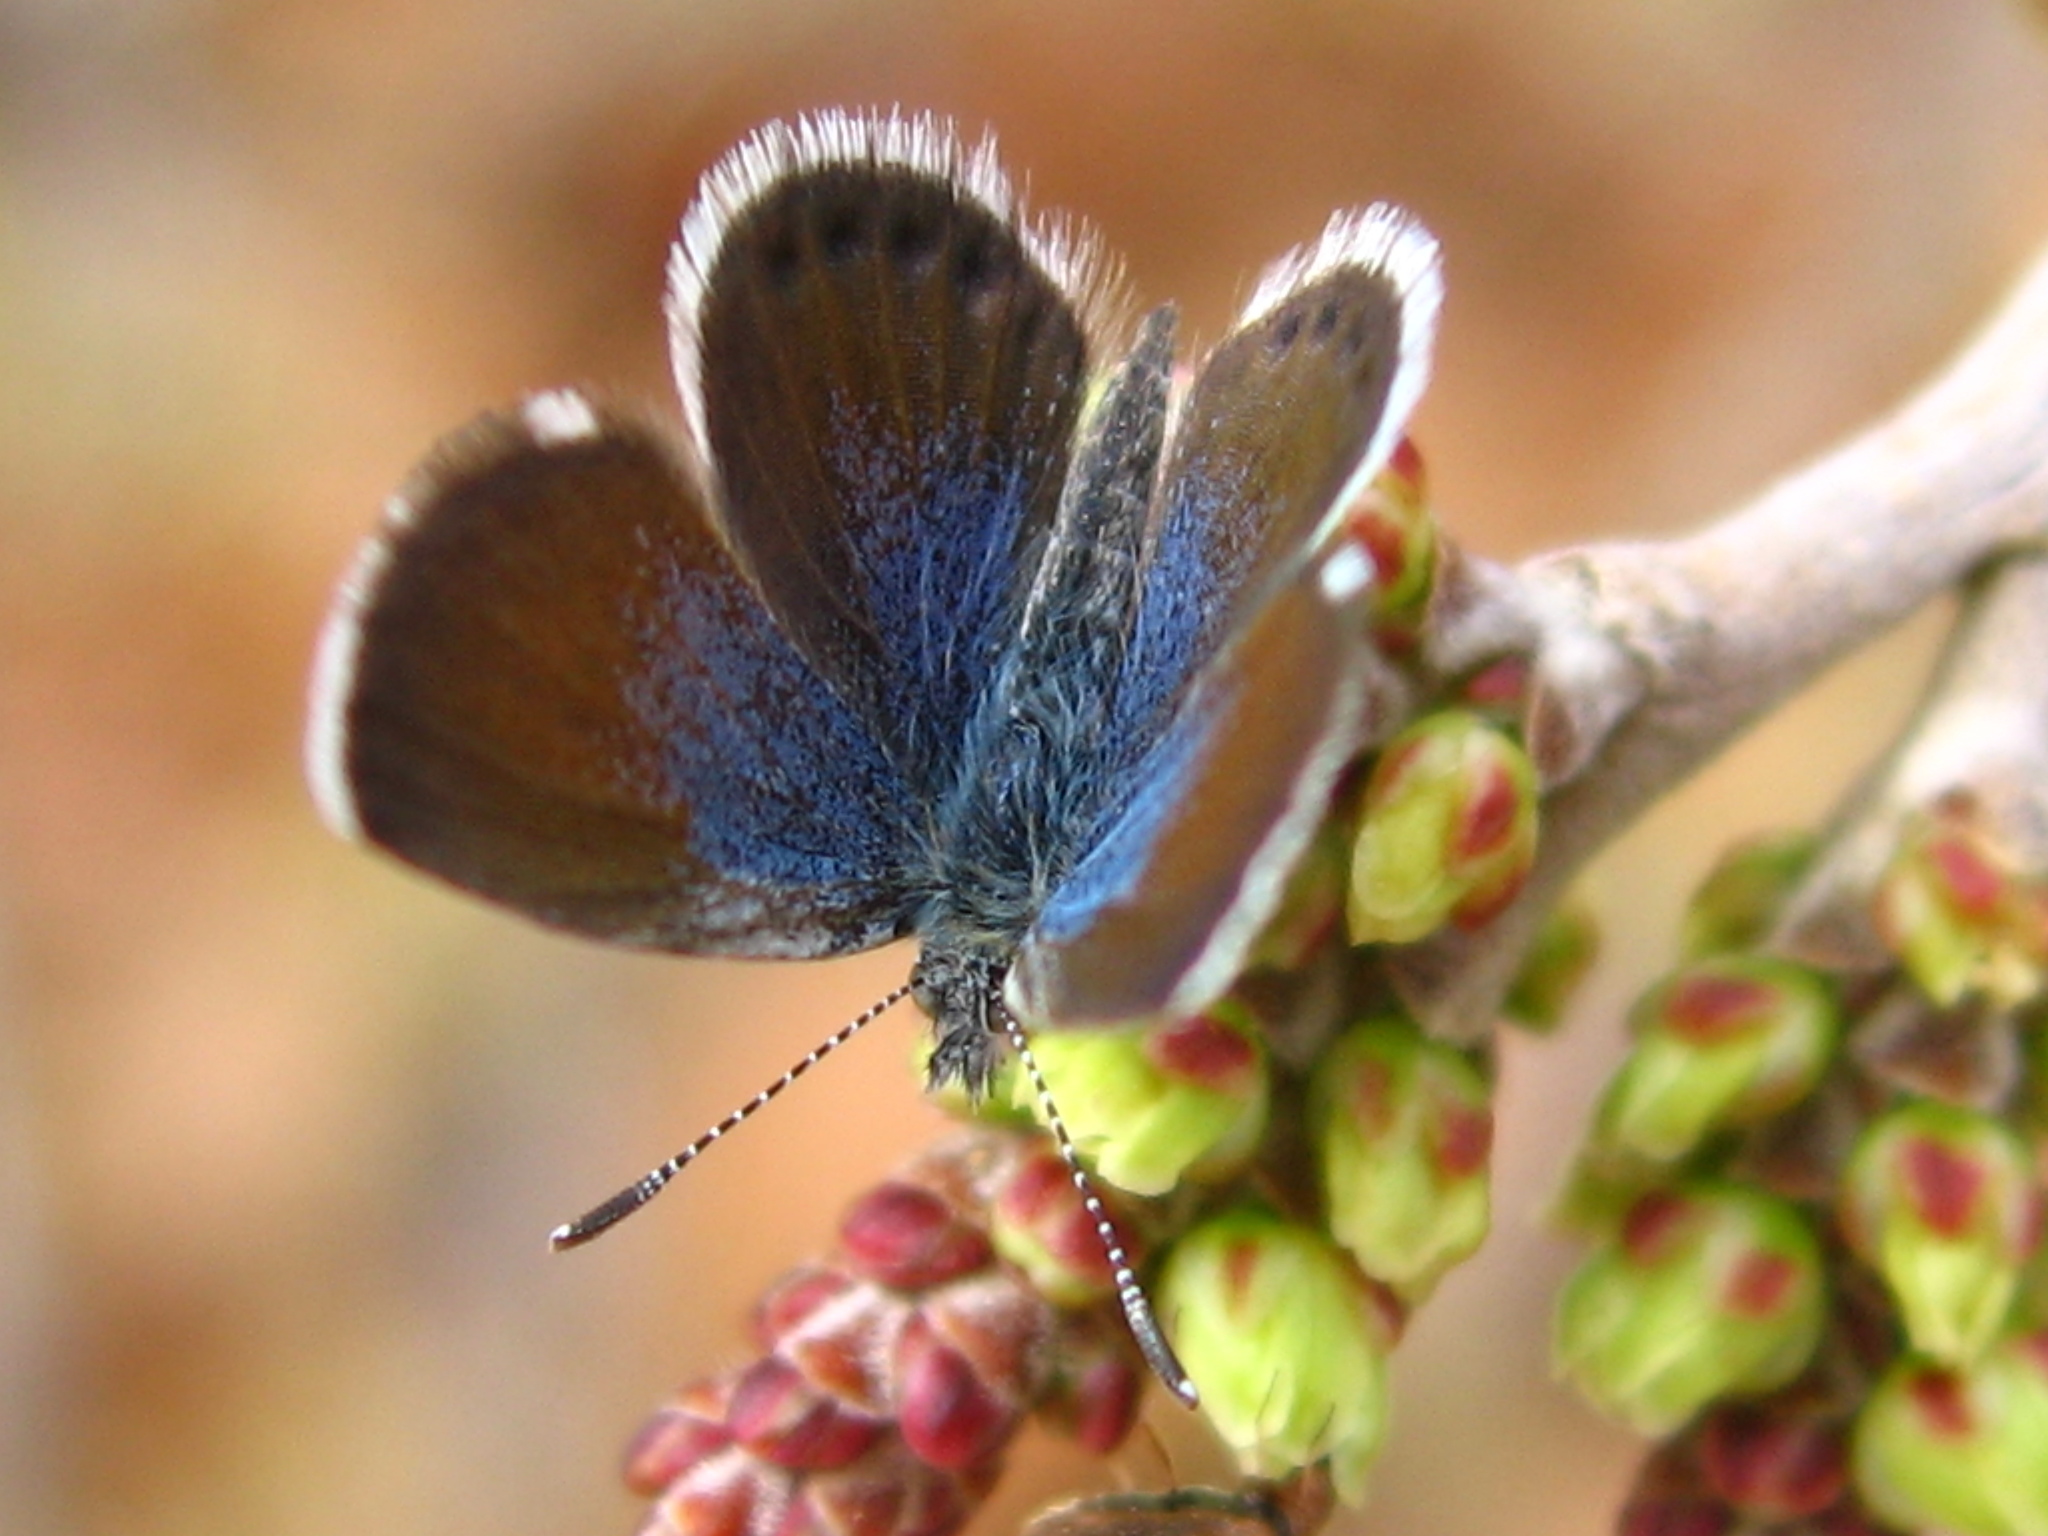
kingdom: Animalia
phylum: Arthropoda
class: Insecta
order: Lepidoptera
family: Lycaenidae
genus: Brephidium
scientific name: Brephidium exilis
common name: Pygmy blue
